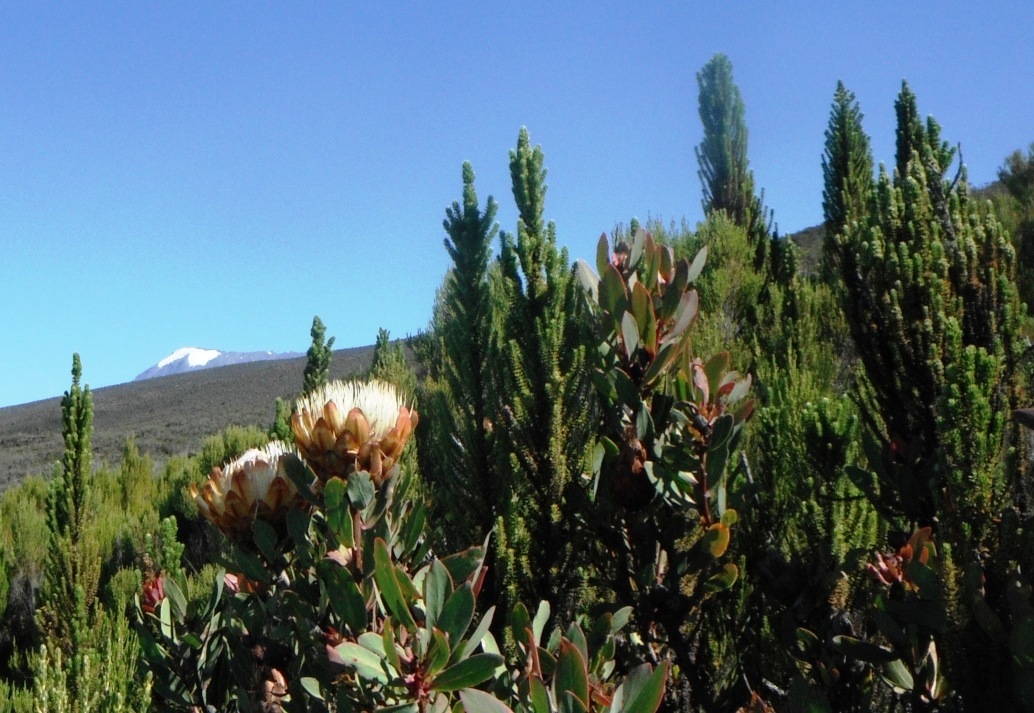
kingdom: Plantae
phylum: Tracheophyta
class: Magnoliopsida
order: Proteales
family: Proteaceae
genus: Protea
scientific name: Protea caffra
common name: Common sugarbush
